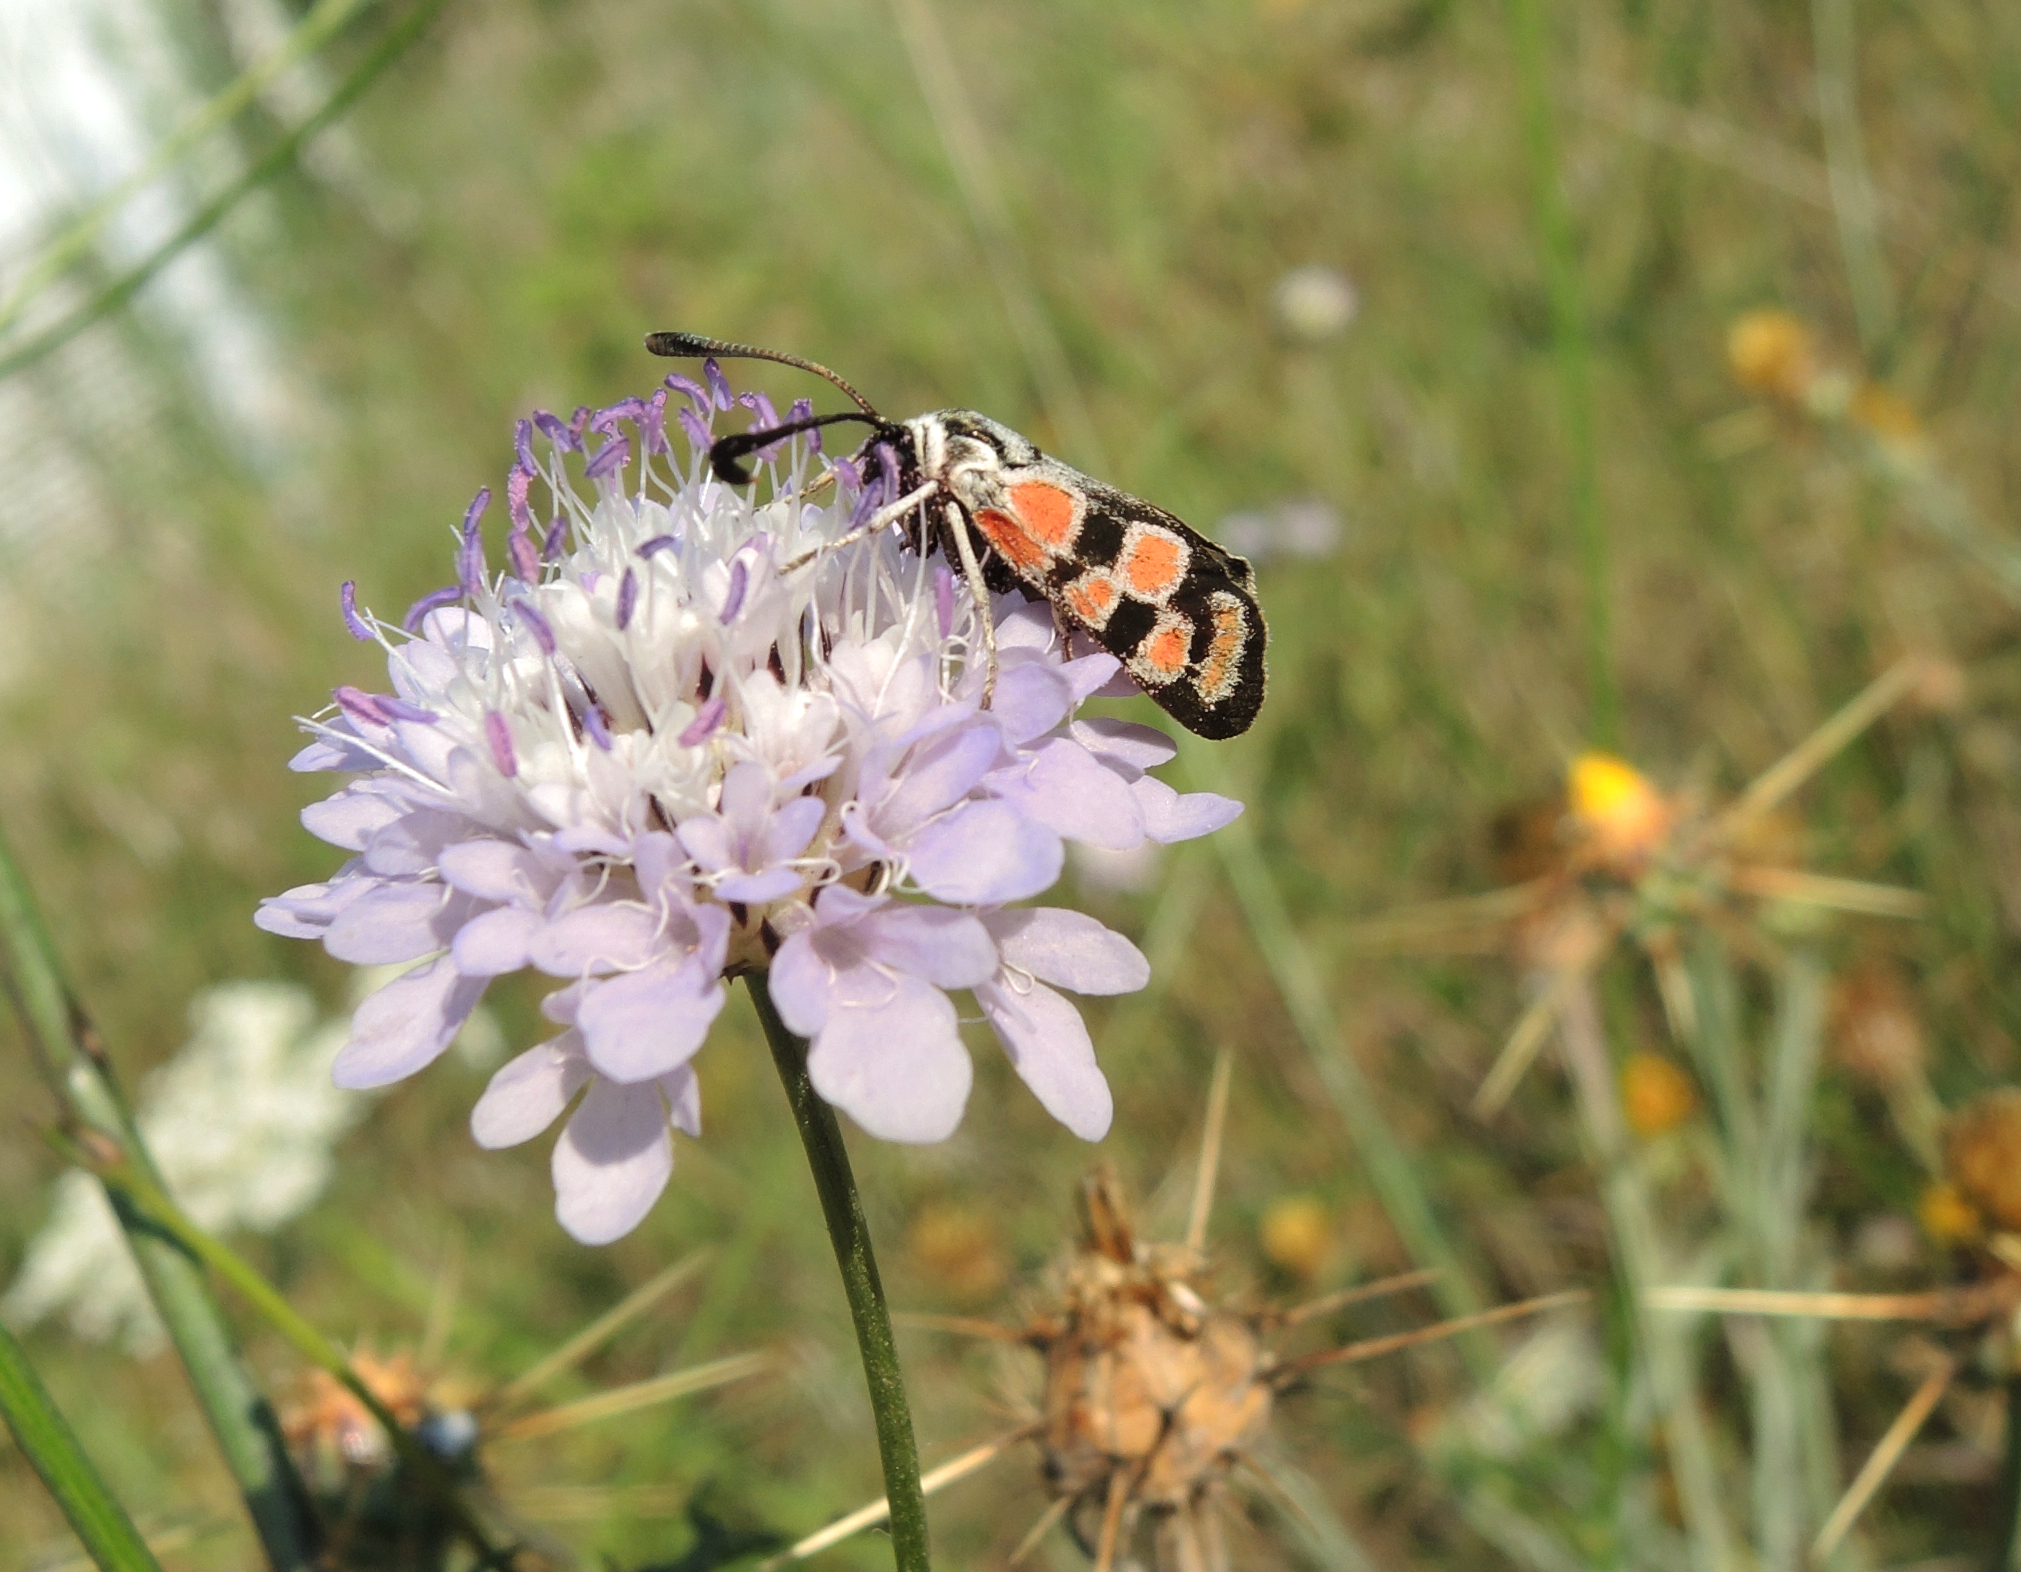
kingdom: Animalia
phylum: Arthropoda
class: Insecta
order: Lepidoptera
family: Zygaenidae
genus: Zygaena
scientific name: Zygaena carniolica
